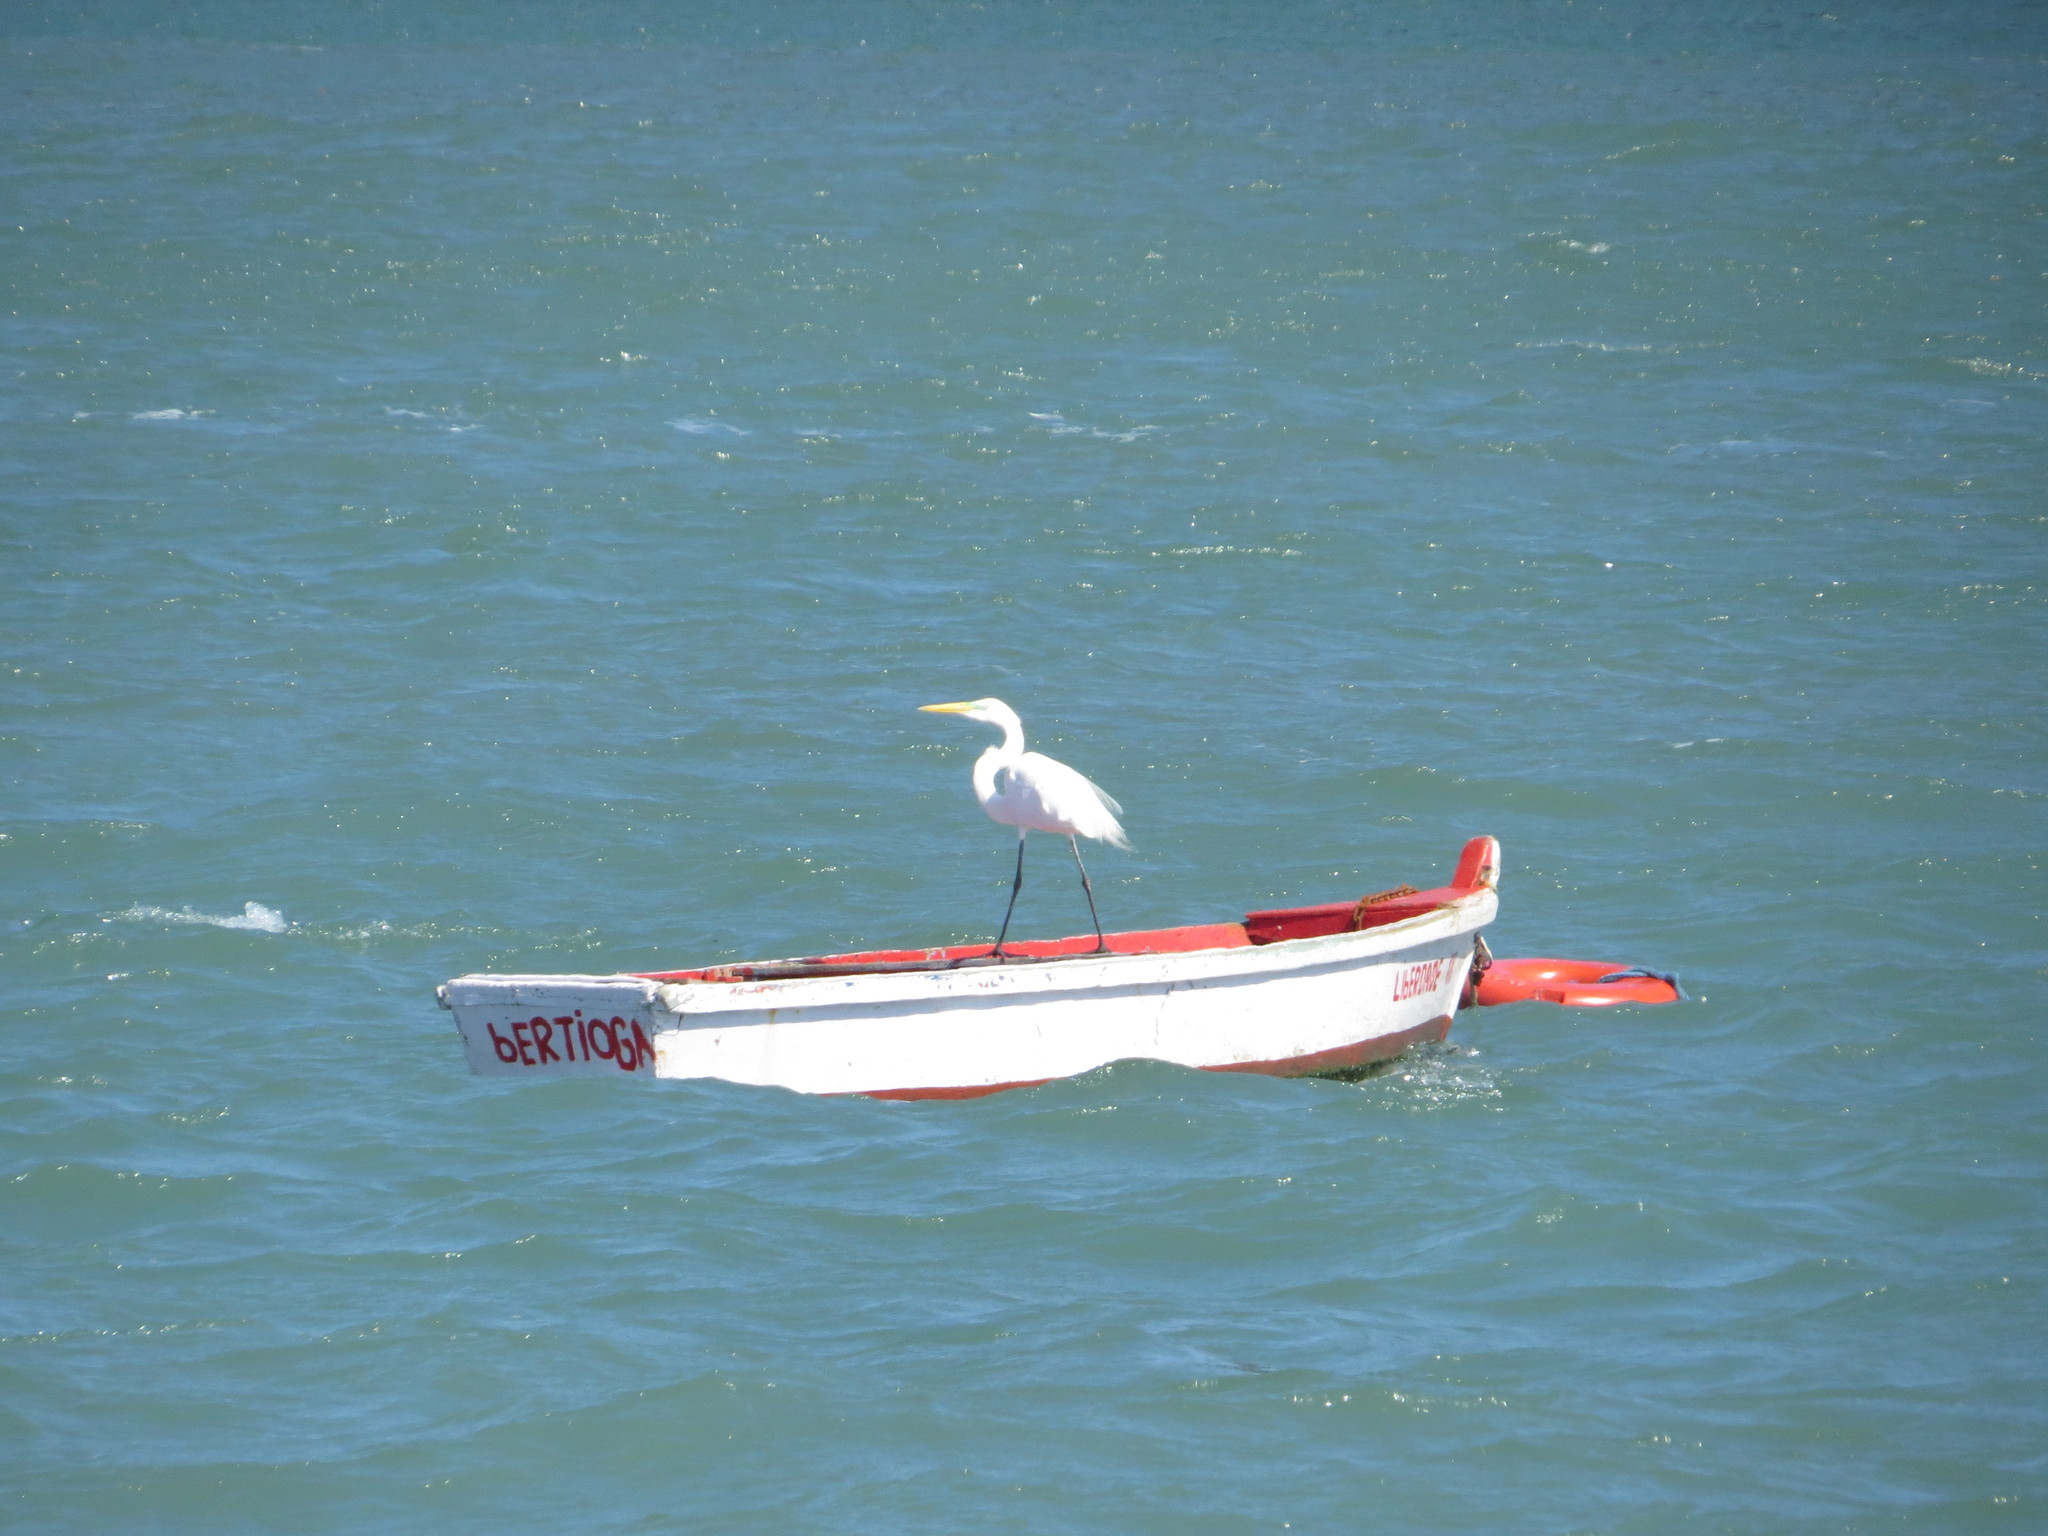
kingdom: Animalia
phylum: Chordata
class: Aves
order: Pelecaniformes
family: Ardeidae
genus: Ardea
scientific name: Ardea alba
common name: Great egret
